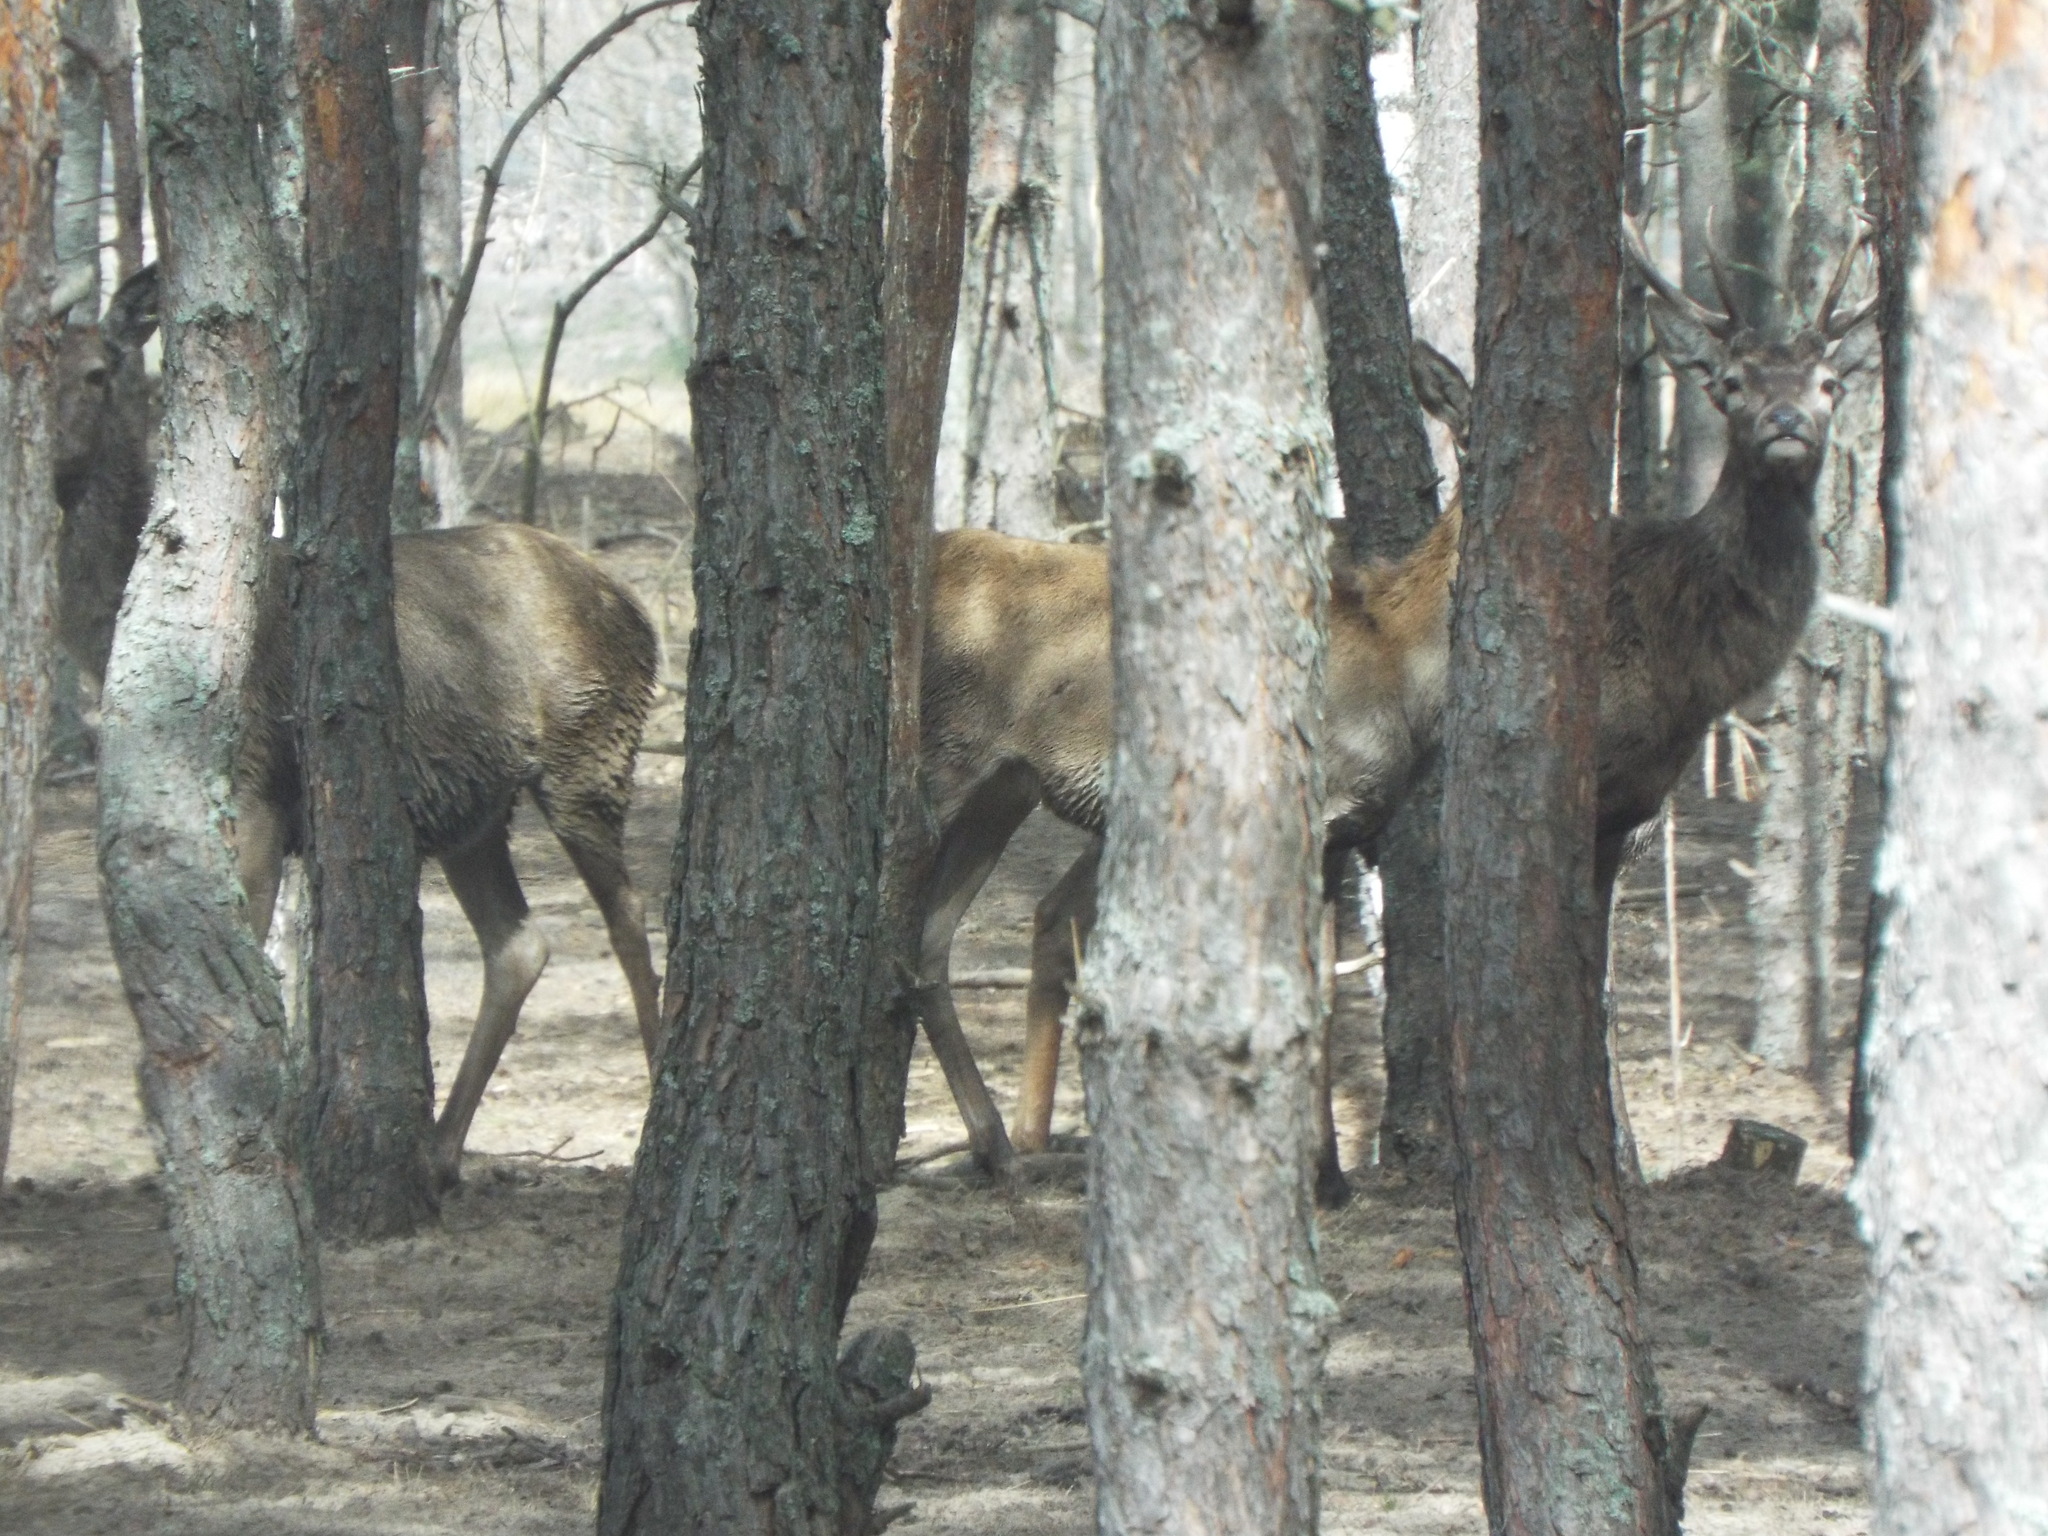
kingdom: Animalia
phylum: Chordata
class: Mammalia
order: Artiodactyla
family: Cervidae
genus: Cervus
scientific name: Cervus elaphus
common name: Red deer
